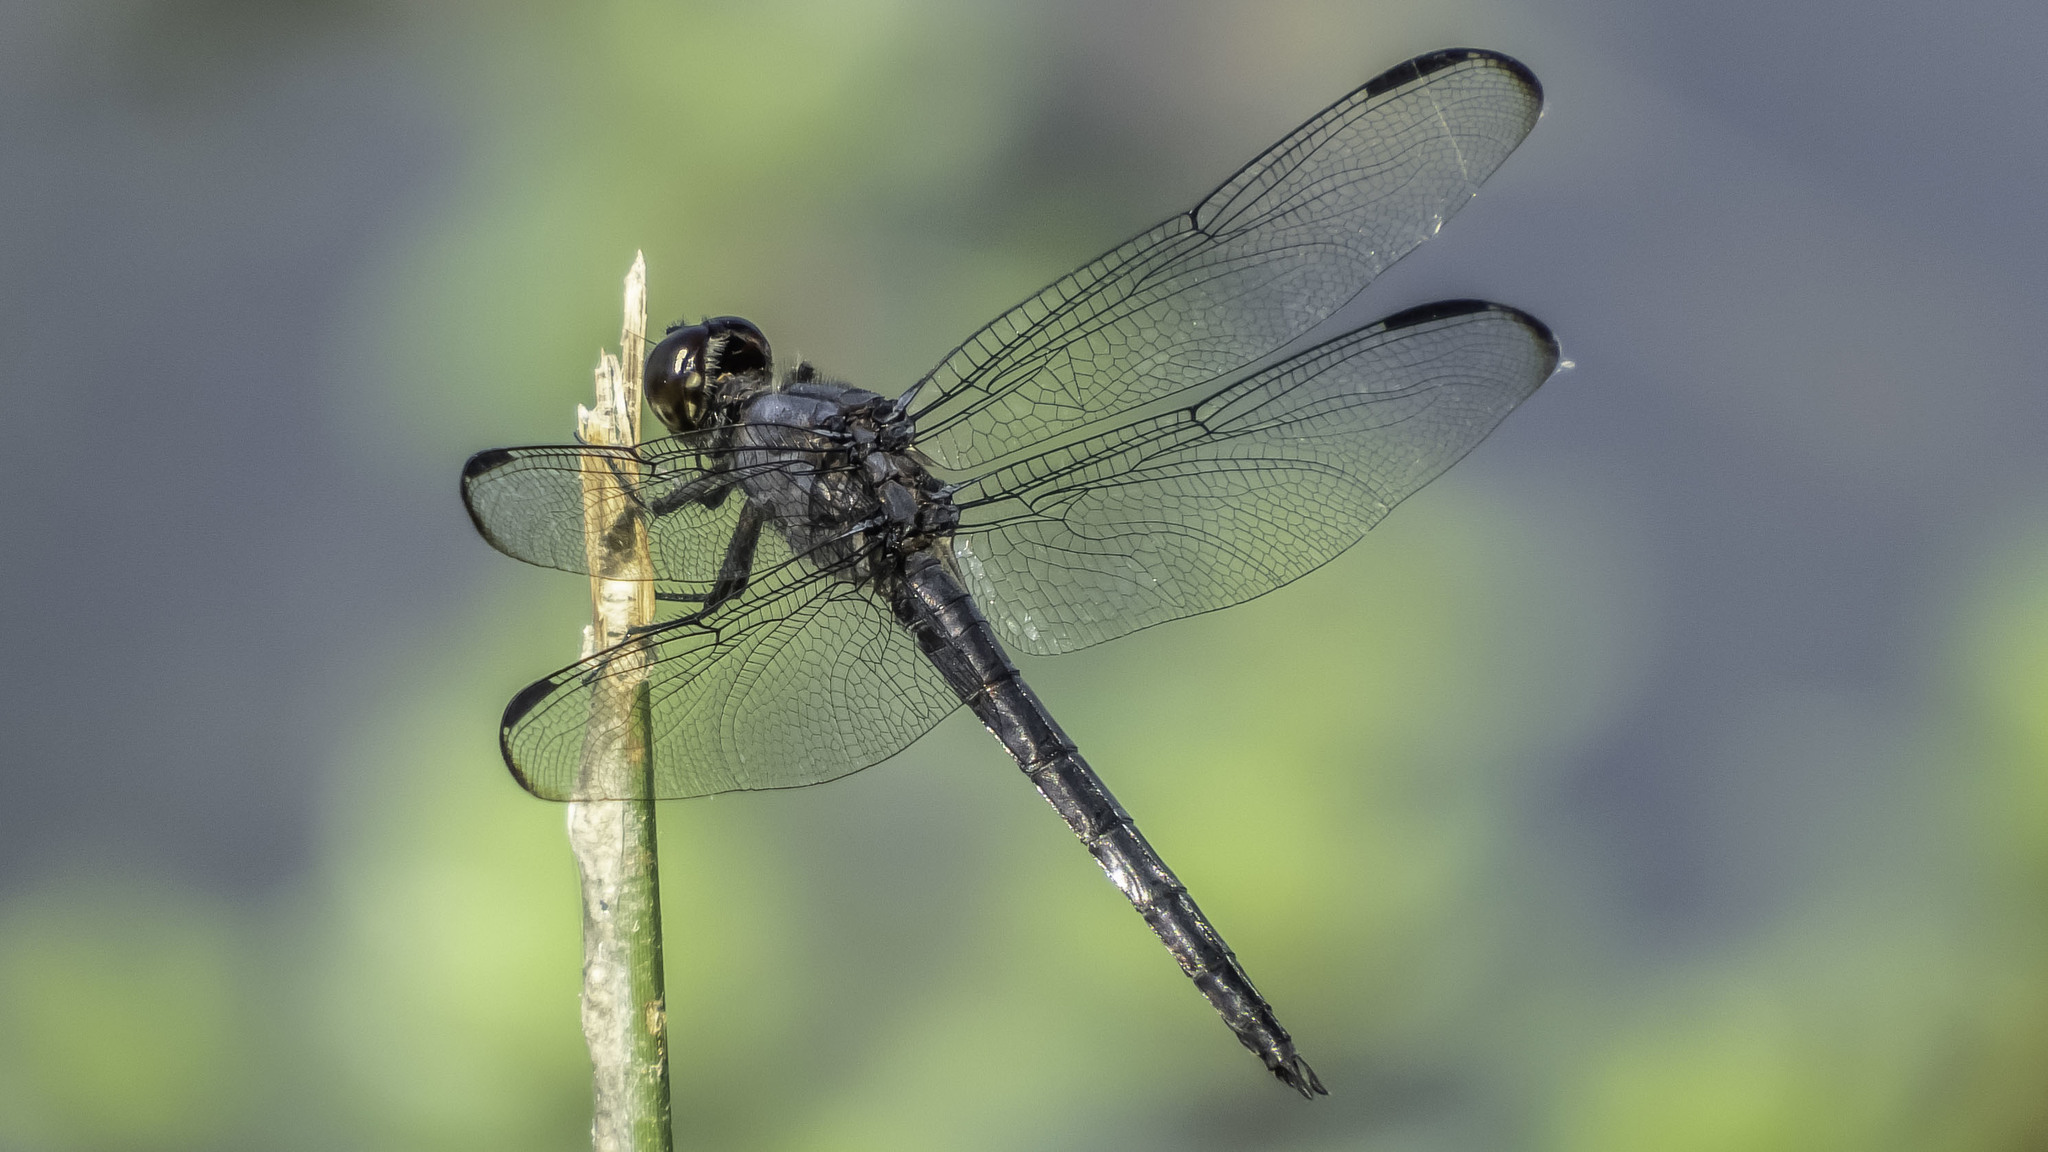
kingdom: Animalia
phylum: Arthropoda
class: Insecta
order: Odonata
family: Libellulidae
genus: Libellula
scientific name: Libellula incesta
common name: Slaty skimmer
